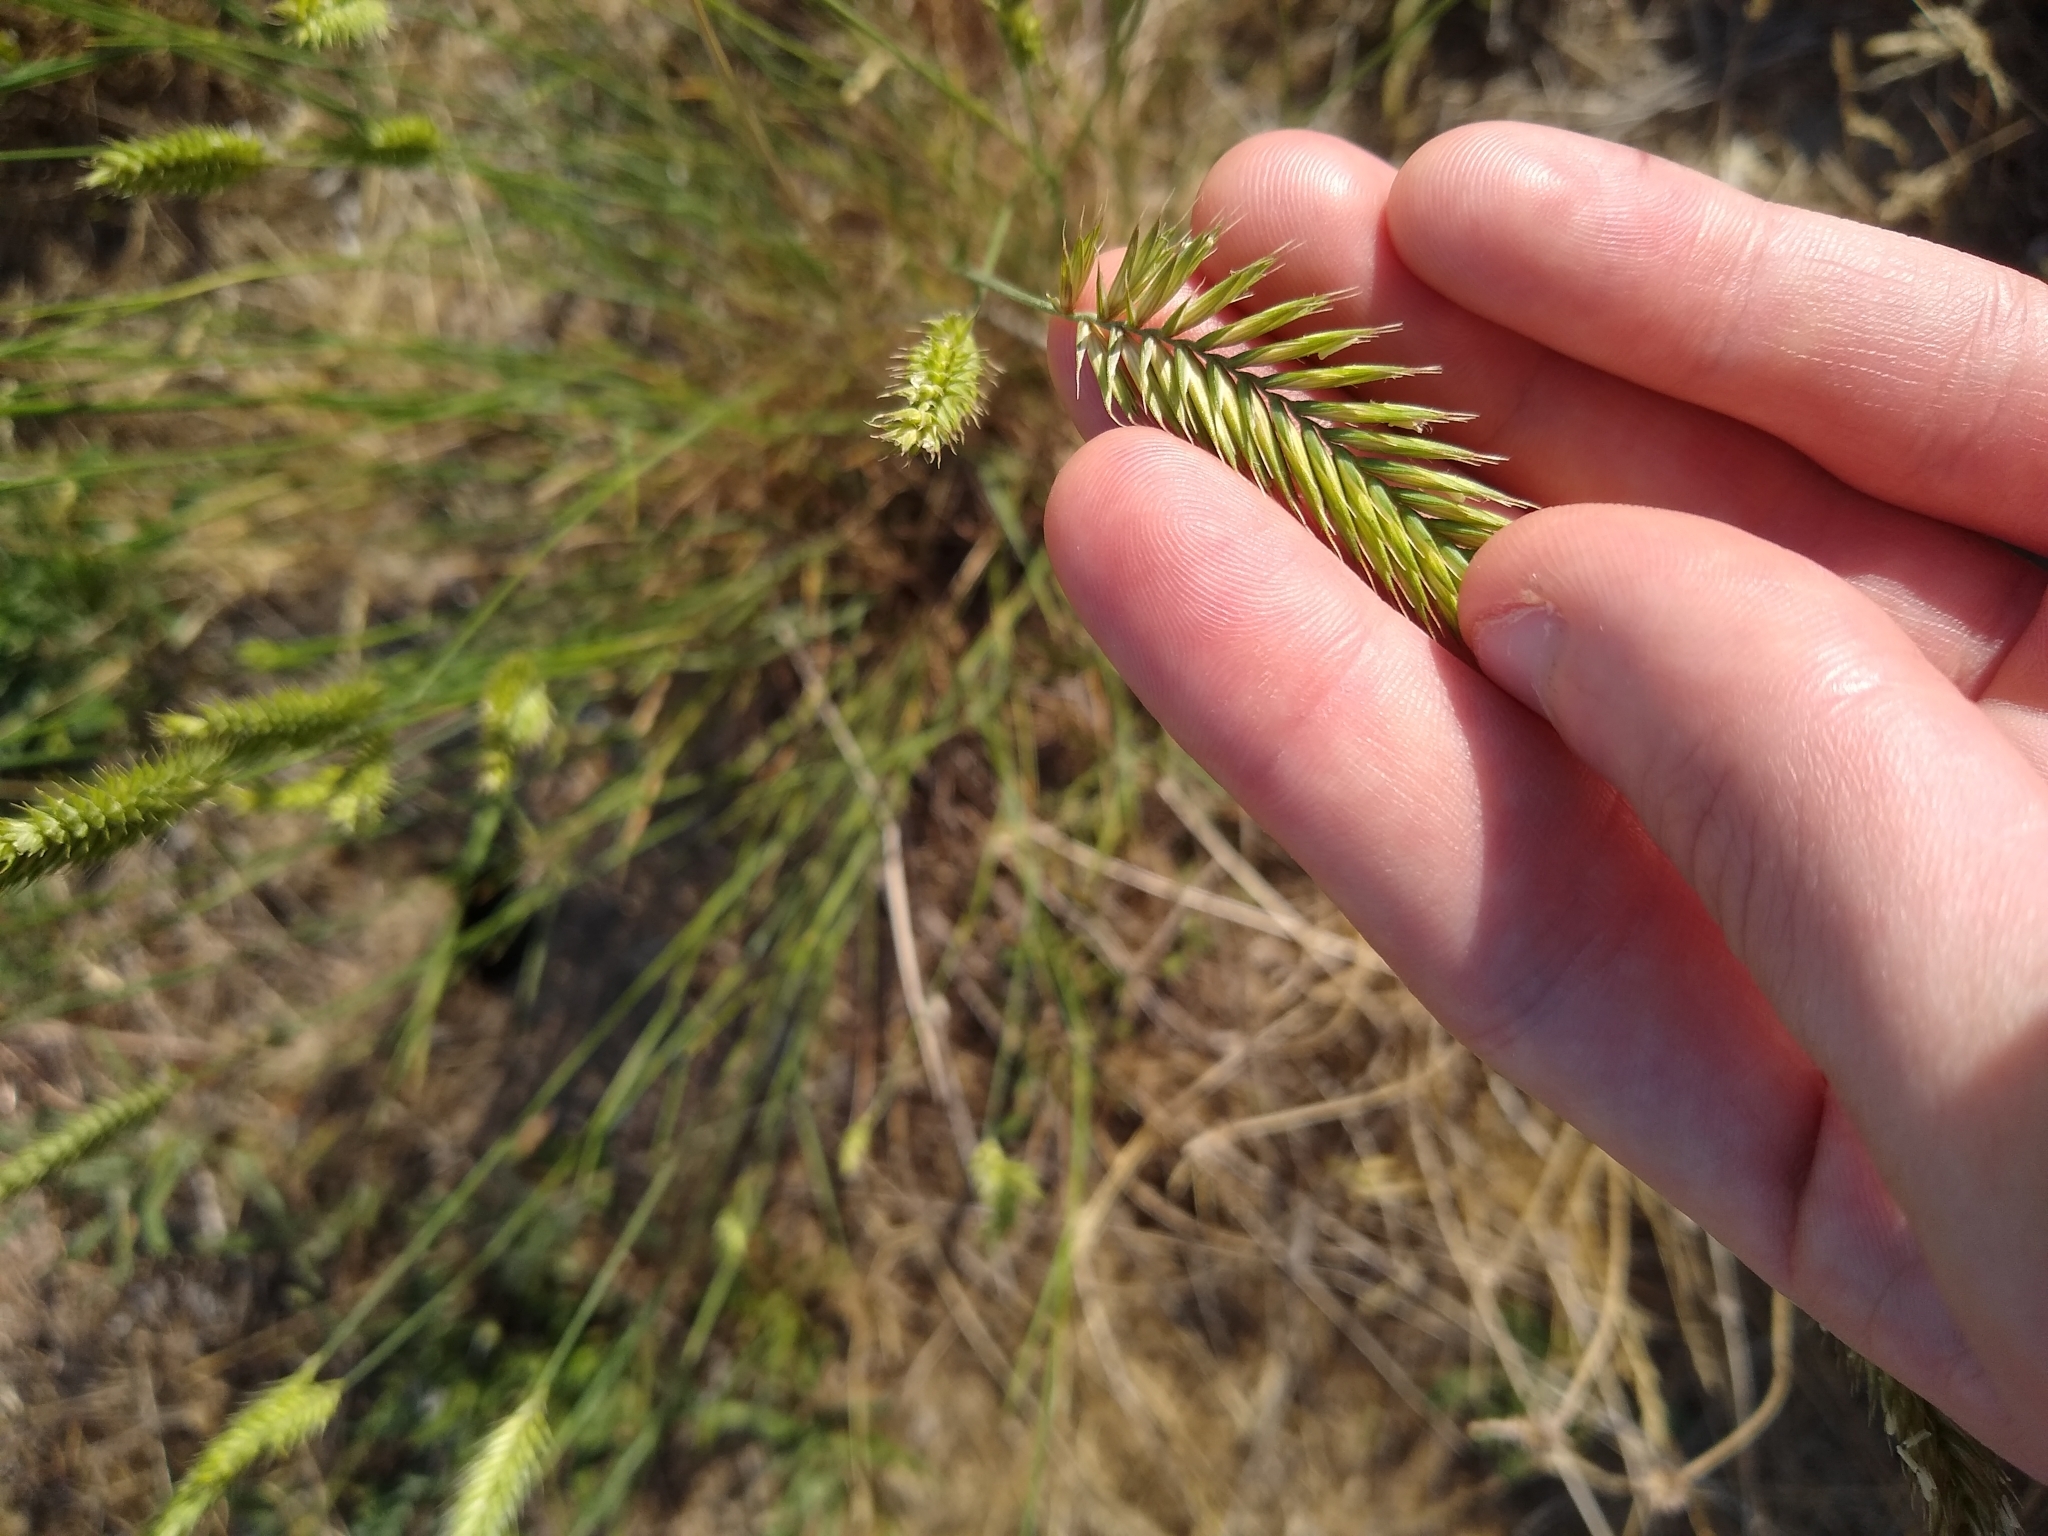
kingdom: Plantae
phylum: Tracheophyta
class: Liliopsida
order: Poales
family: Poaceae
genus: Agropyron
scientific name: Agropyron cristatum
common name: Crested wheatgrass
